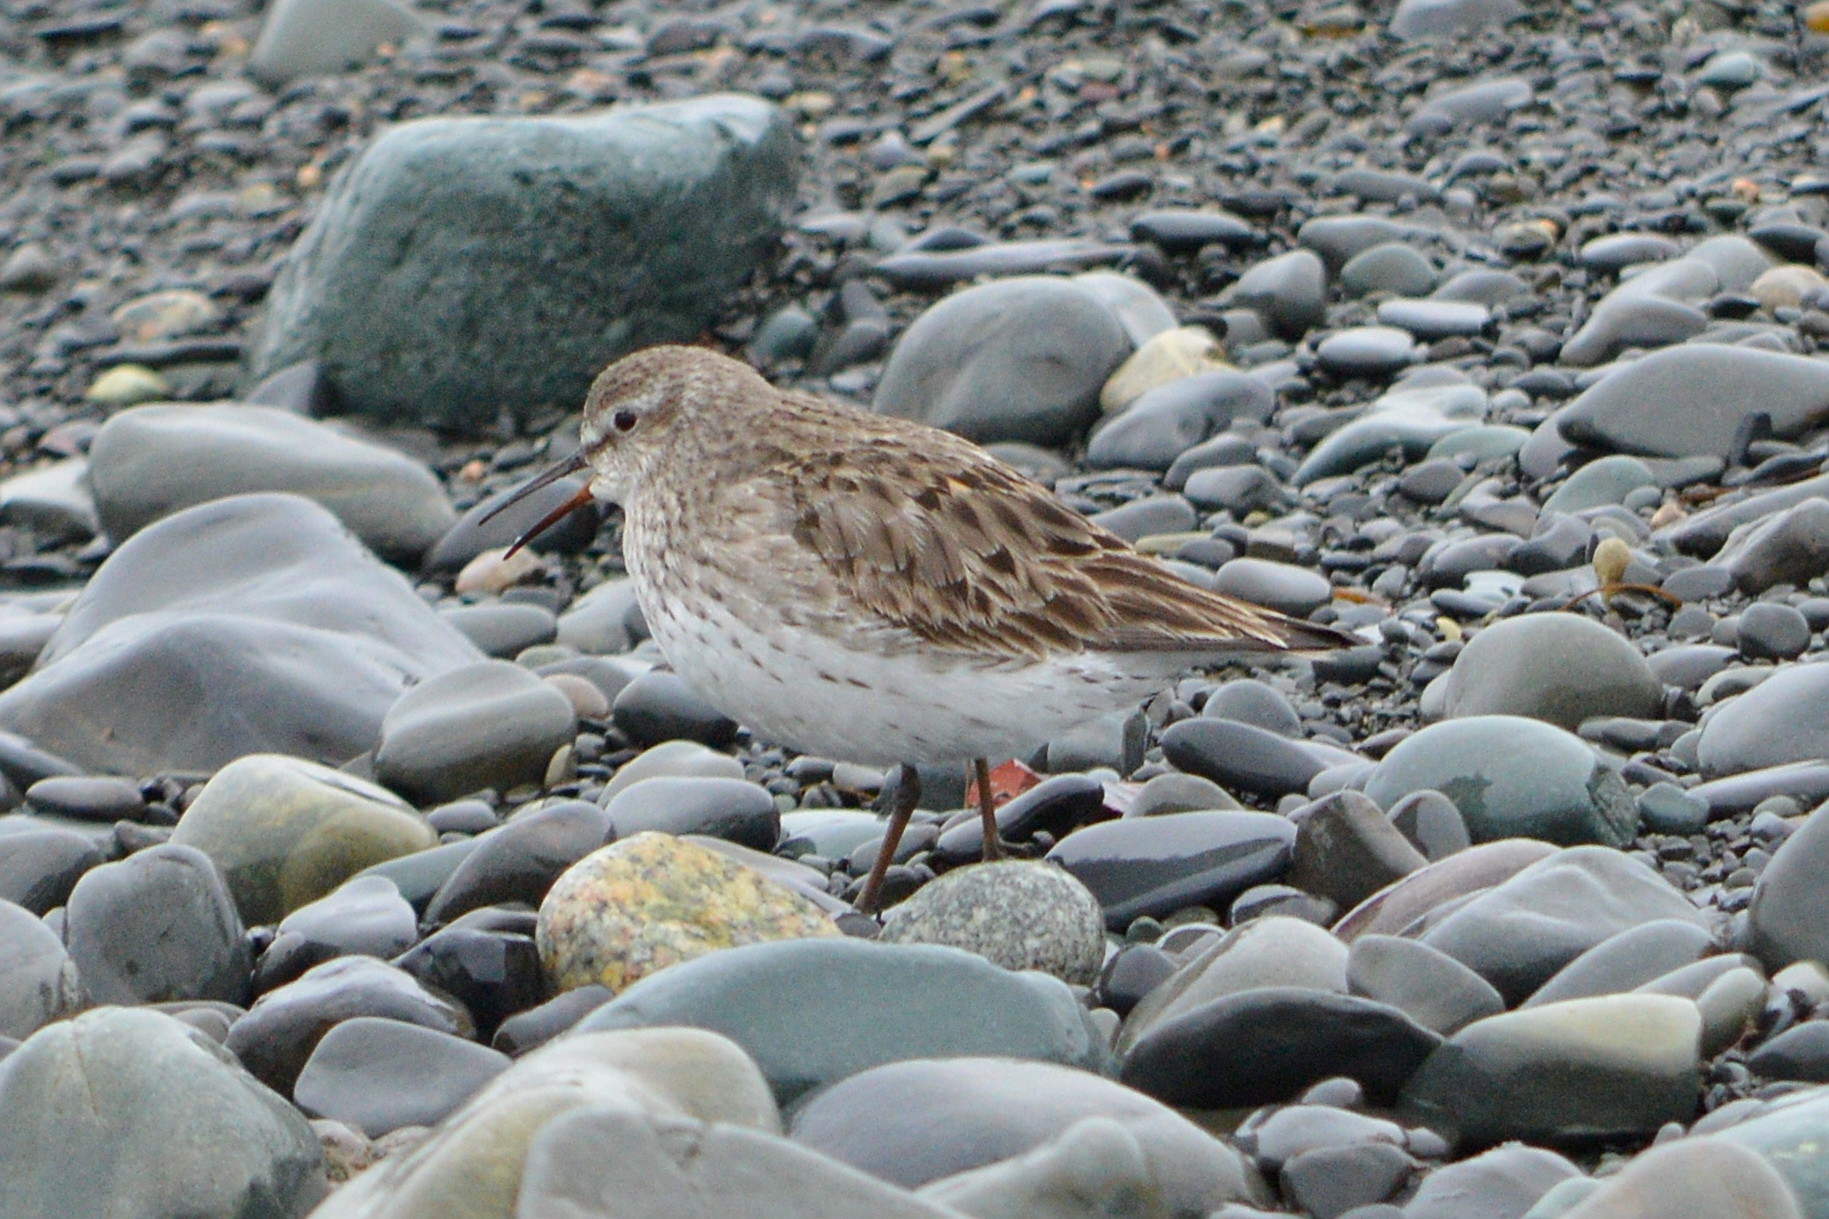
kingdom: Animalia
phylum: Chordata
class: Aves
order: Charadriiformes
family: Scolopacidae
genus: Calidris
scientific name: Calidris fuscicollis
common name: White-rumped sandpiper
